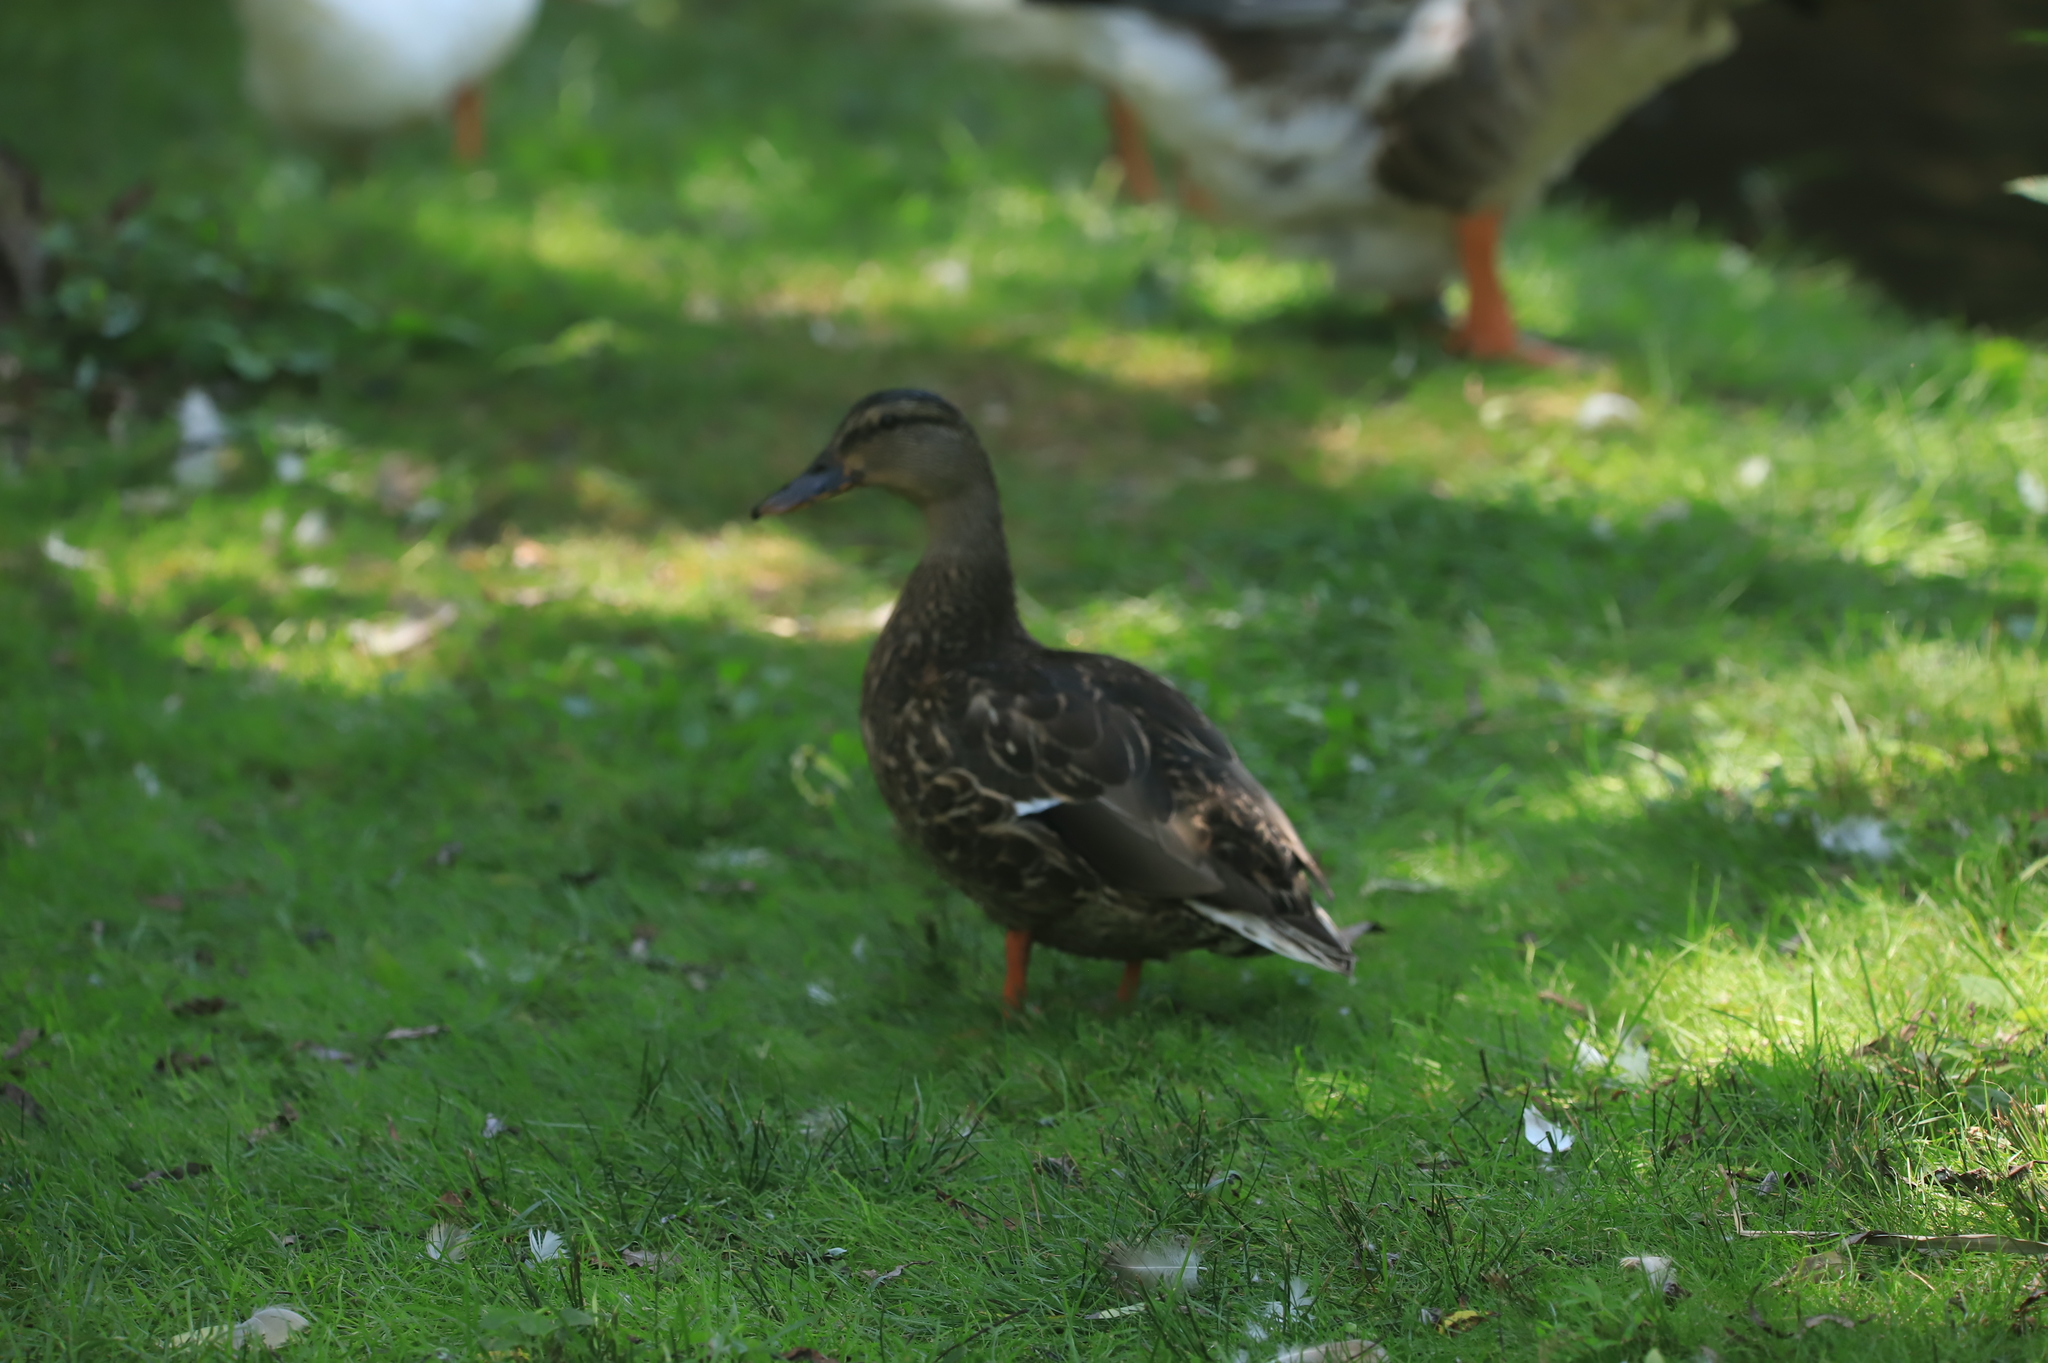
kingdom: Animalia
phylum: Chordata
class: Aves
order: Anseriformes
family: Anatidae
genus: Anas
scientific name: Anas platyrhynchos
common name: Mallard
